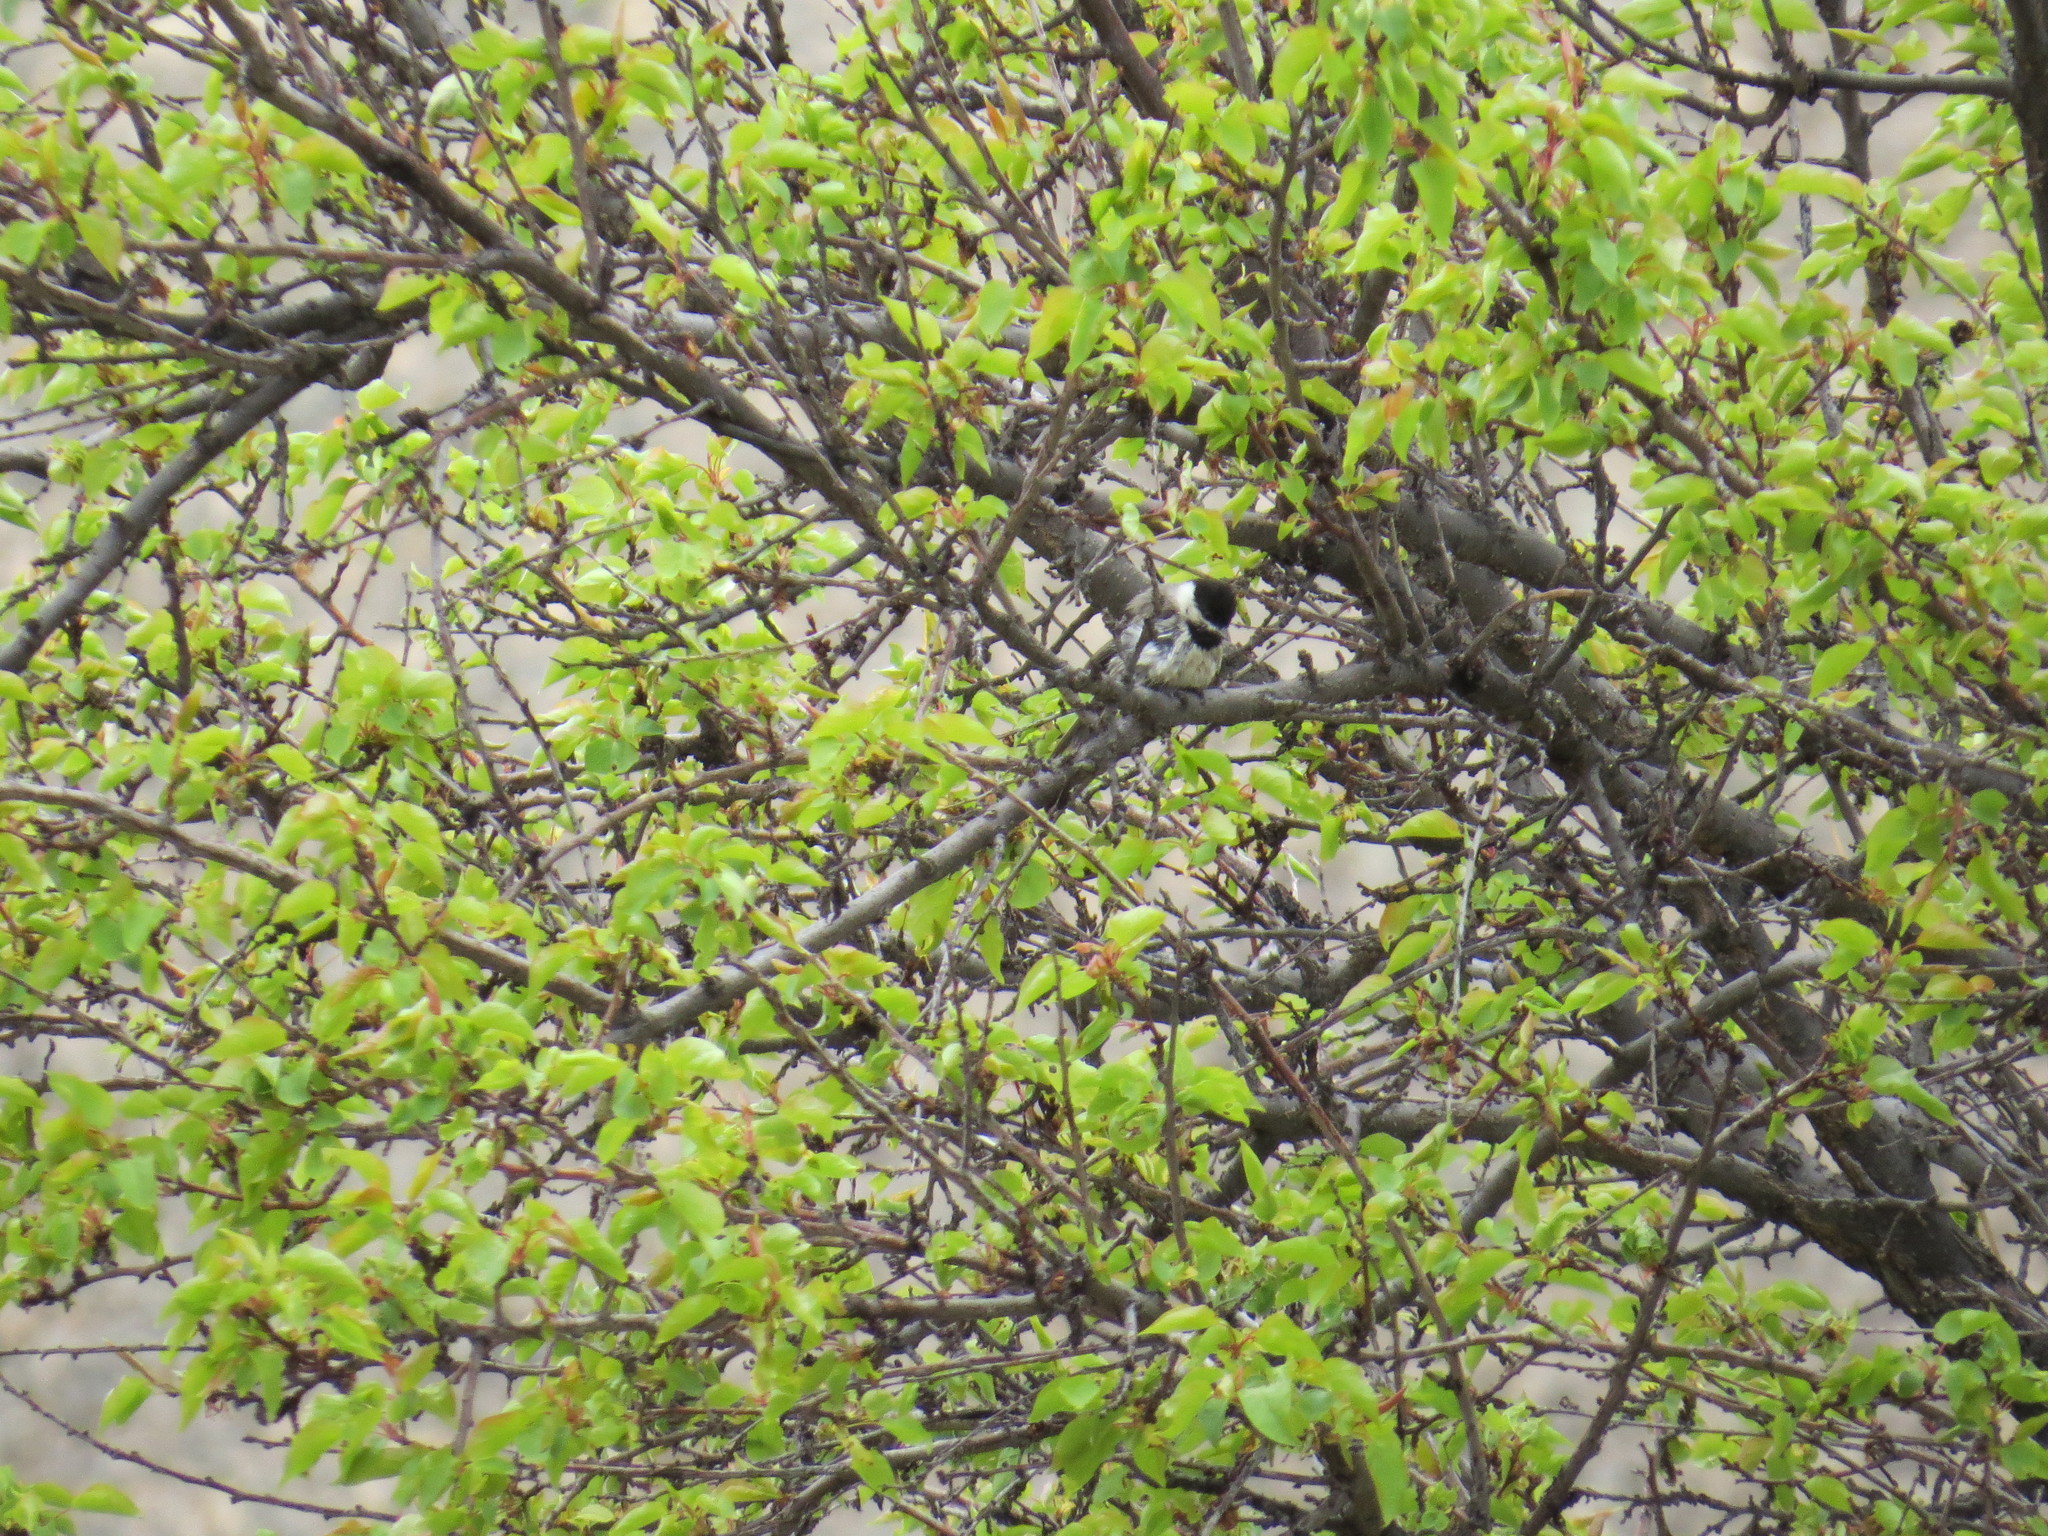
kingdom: Animalia
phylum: Chordata
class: Aves
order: Passeriformes
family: Paridae
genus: Poecile
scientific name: Poecile lugubris
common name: Sombre tit
